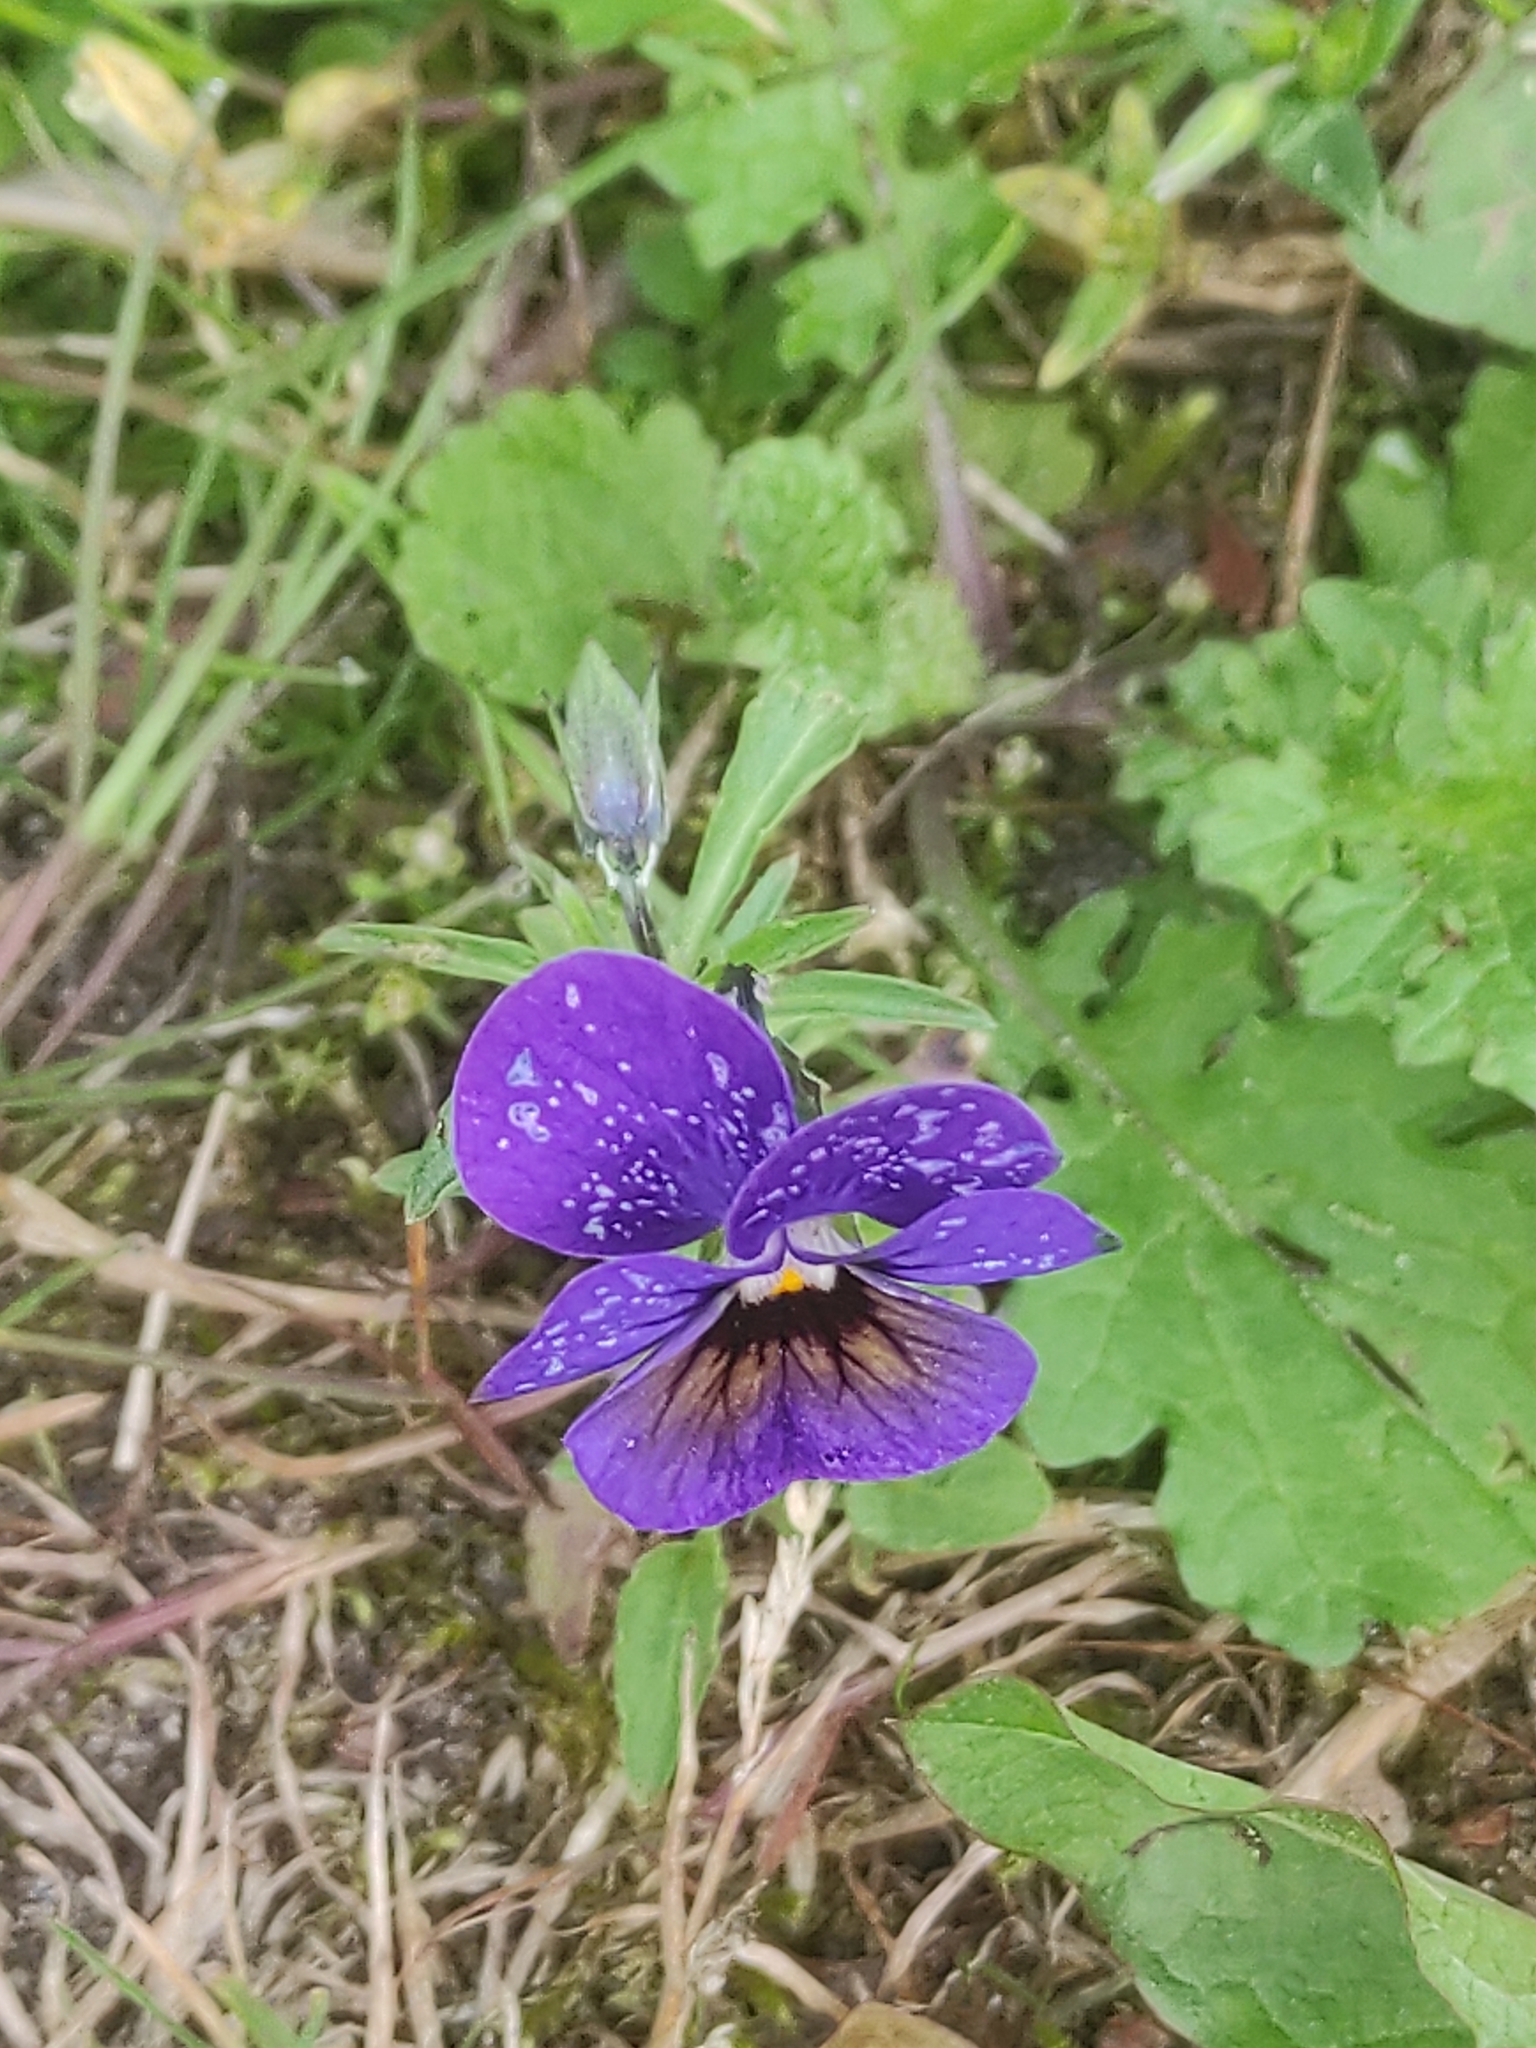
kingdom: Plantae
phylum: Tracheophyta
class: Magnoliopsida
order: Malpighiales
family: Violaceae
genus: Viola
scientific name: Viola williamsii
